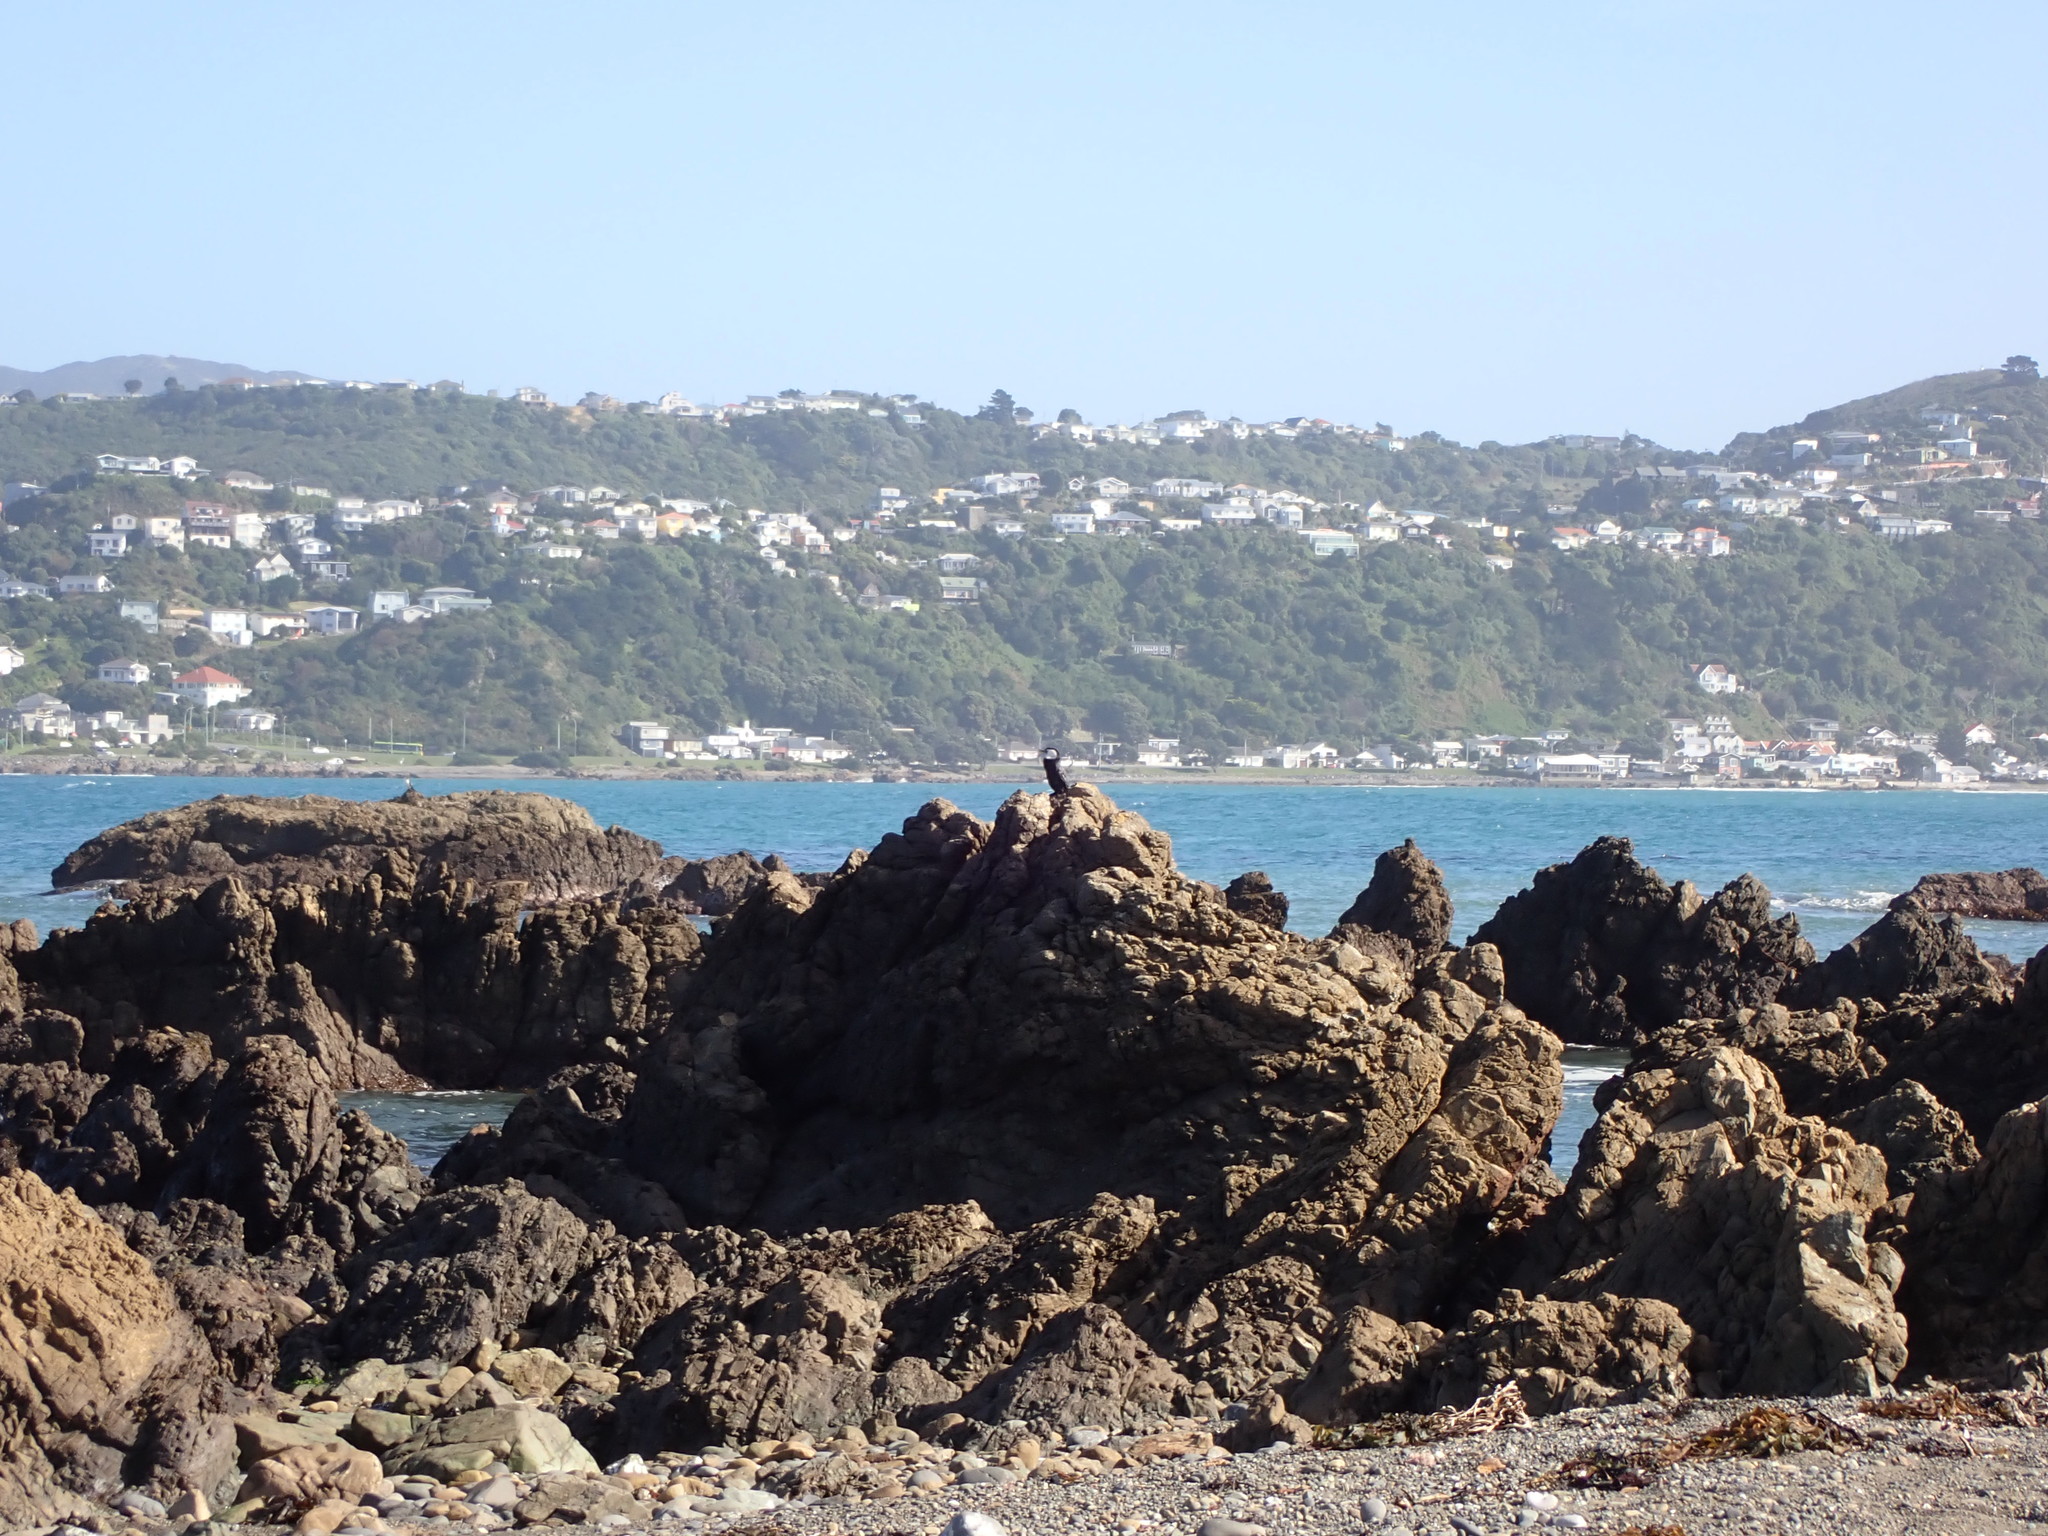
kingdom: Animalia
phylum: Chordata
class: Aves
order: Suliformes
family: Phalacrocoracidae
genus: Microcarbo
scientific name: Microcarbo melanoleucos
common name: Little pied cormorant
